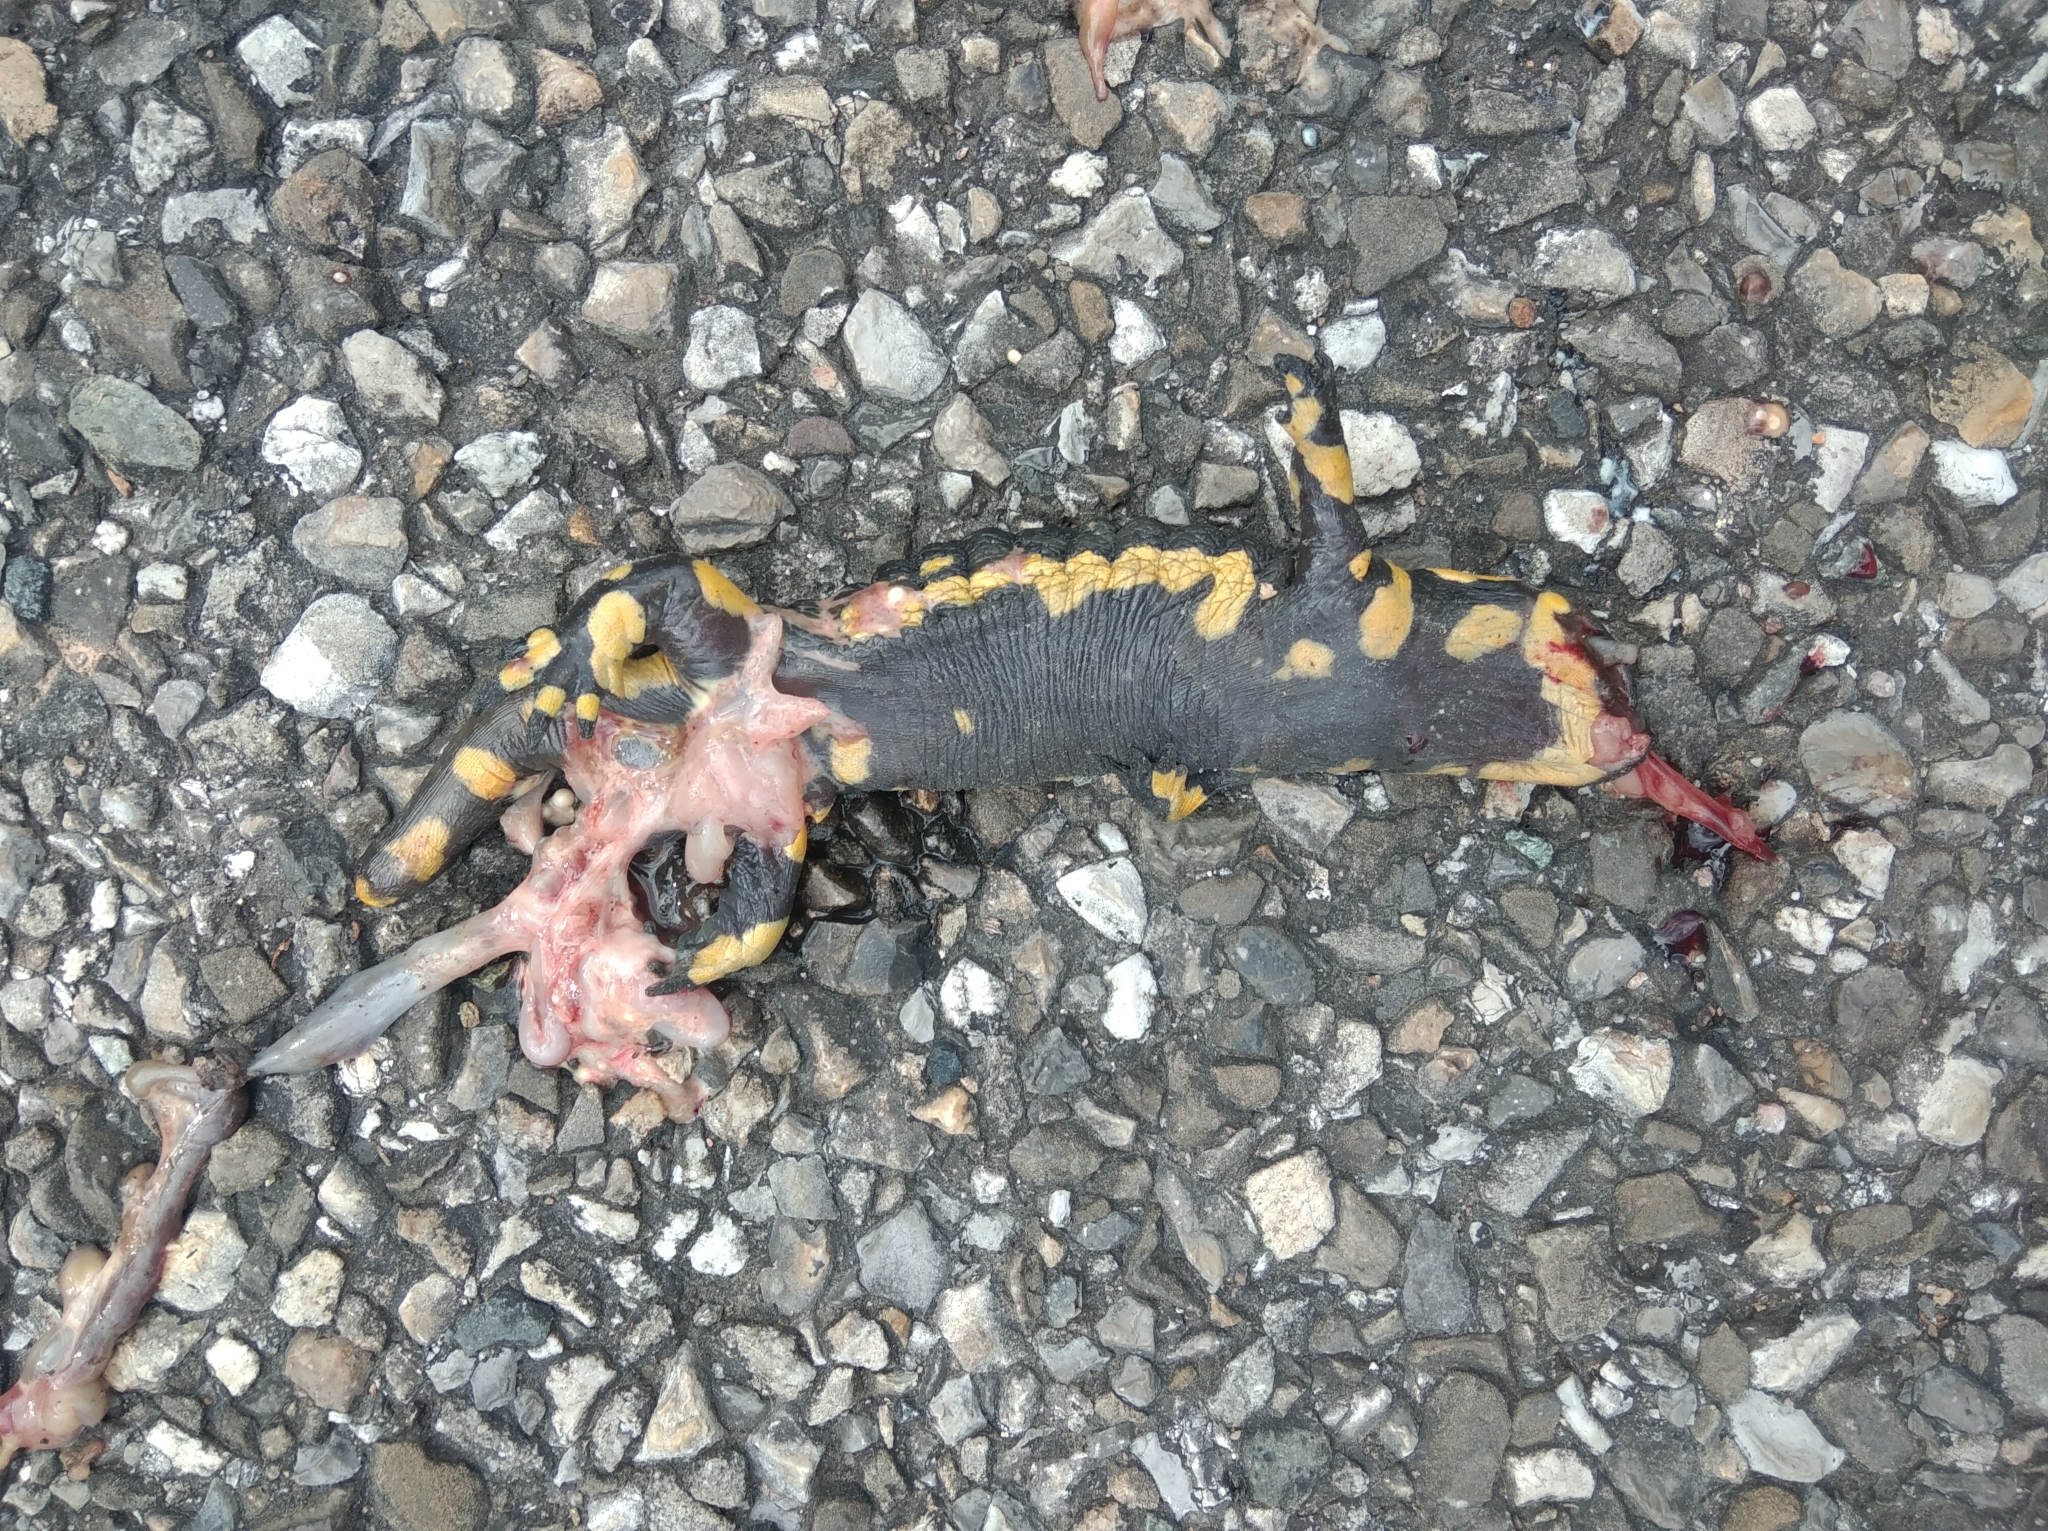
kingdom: Animalia
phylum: Chordata
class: Amphibia
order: Caudata
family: Salamandridae
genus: Salamandra
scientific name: Salamandra salamandra
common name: Fire salamander
